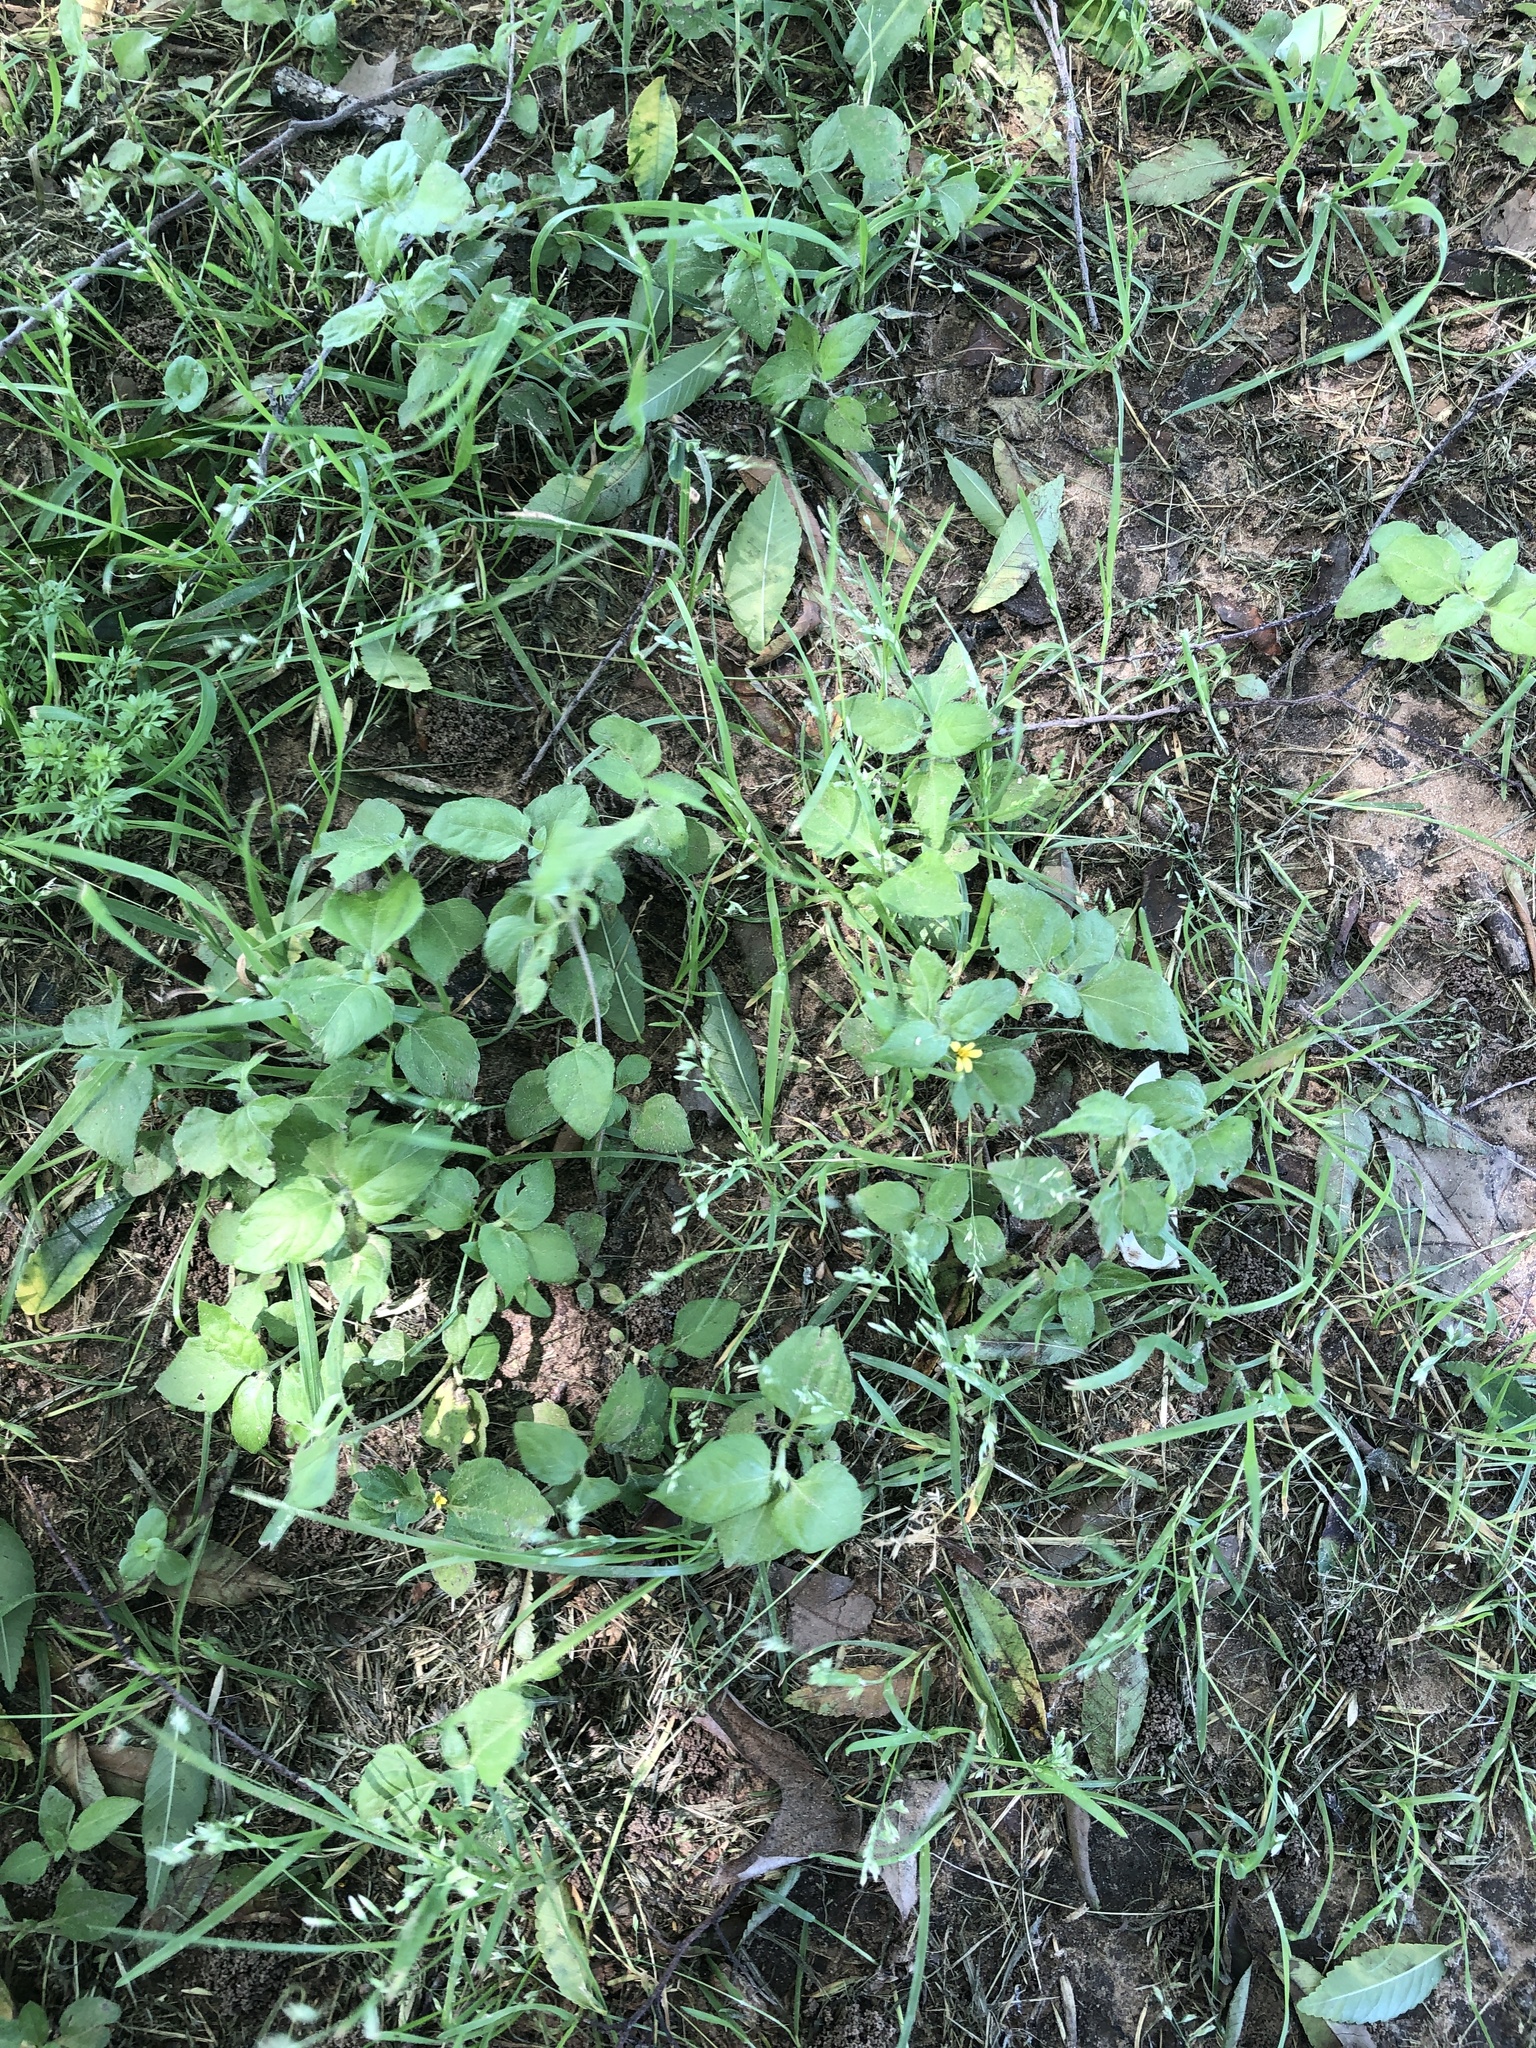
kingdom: Plantae
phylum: Tracheophyta
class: Magnoliopsida
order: Asterales
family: Asteraceae
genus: Calyptocarpus
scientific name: Calyptocarpus vialis
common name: Straggler daisy
